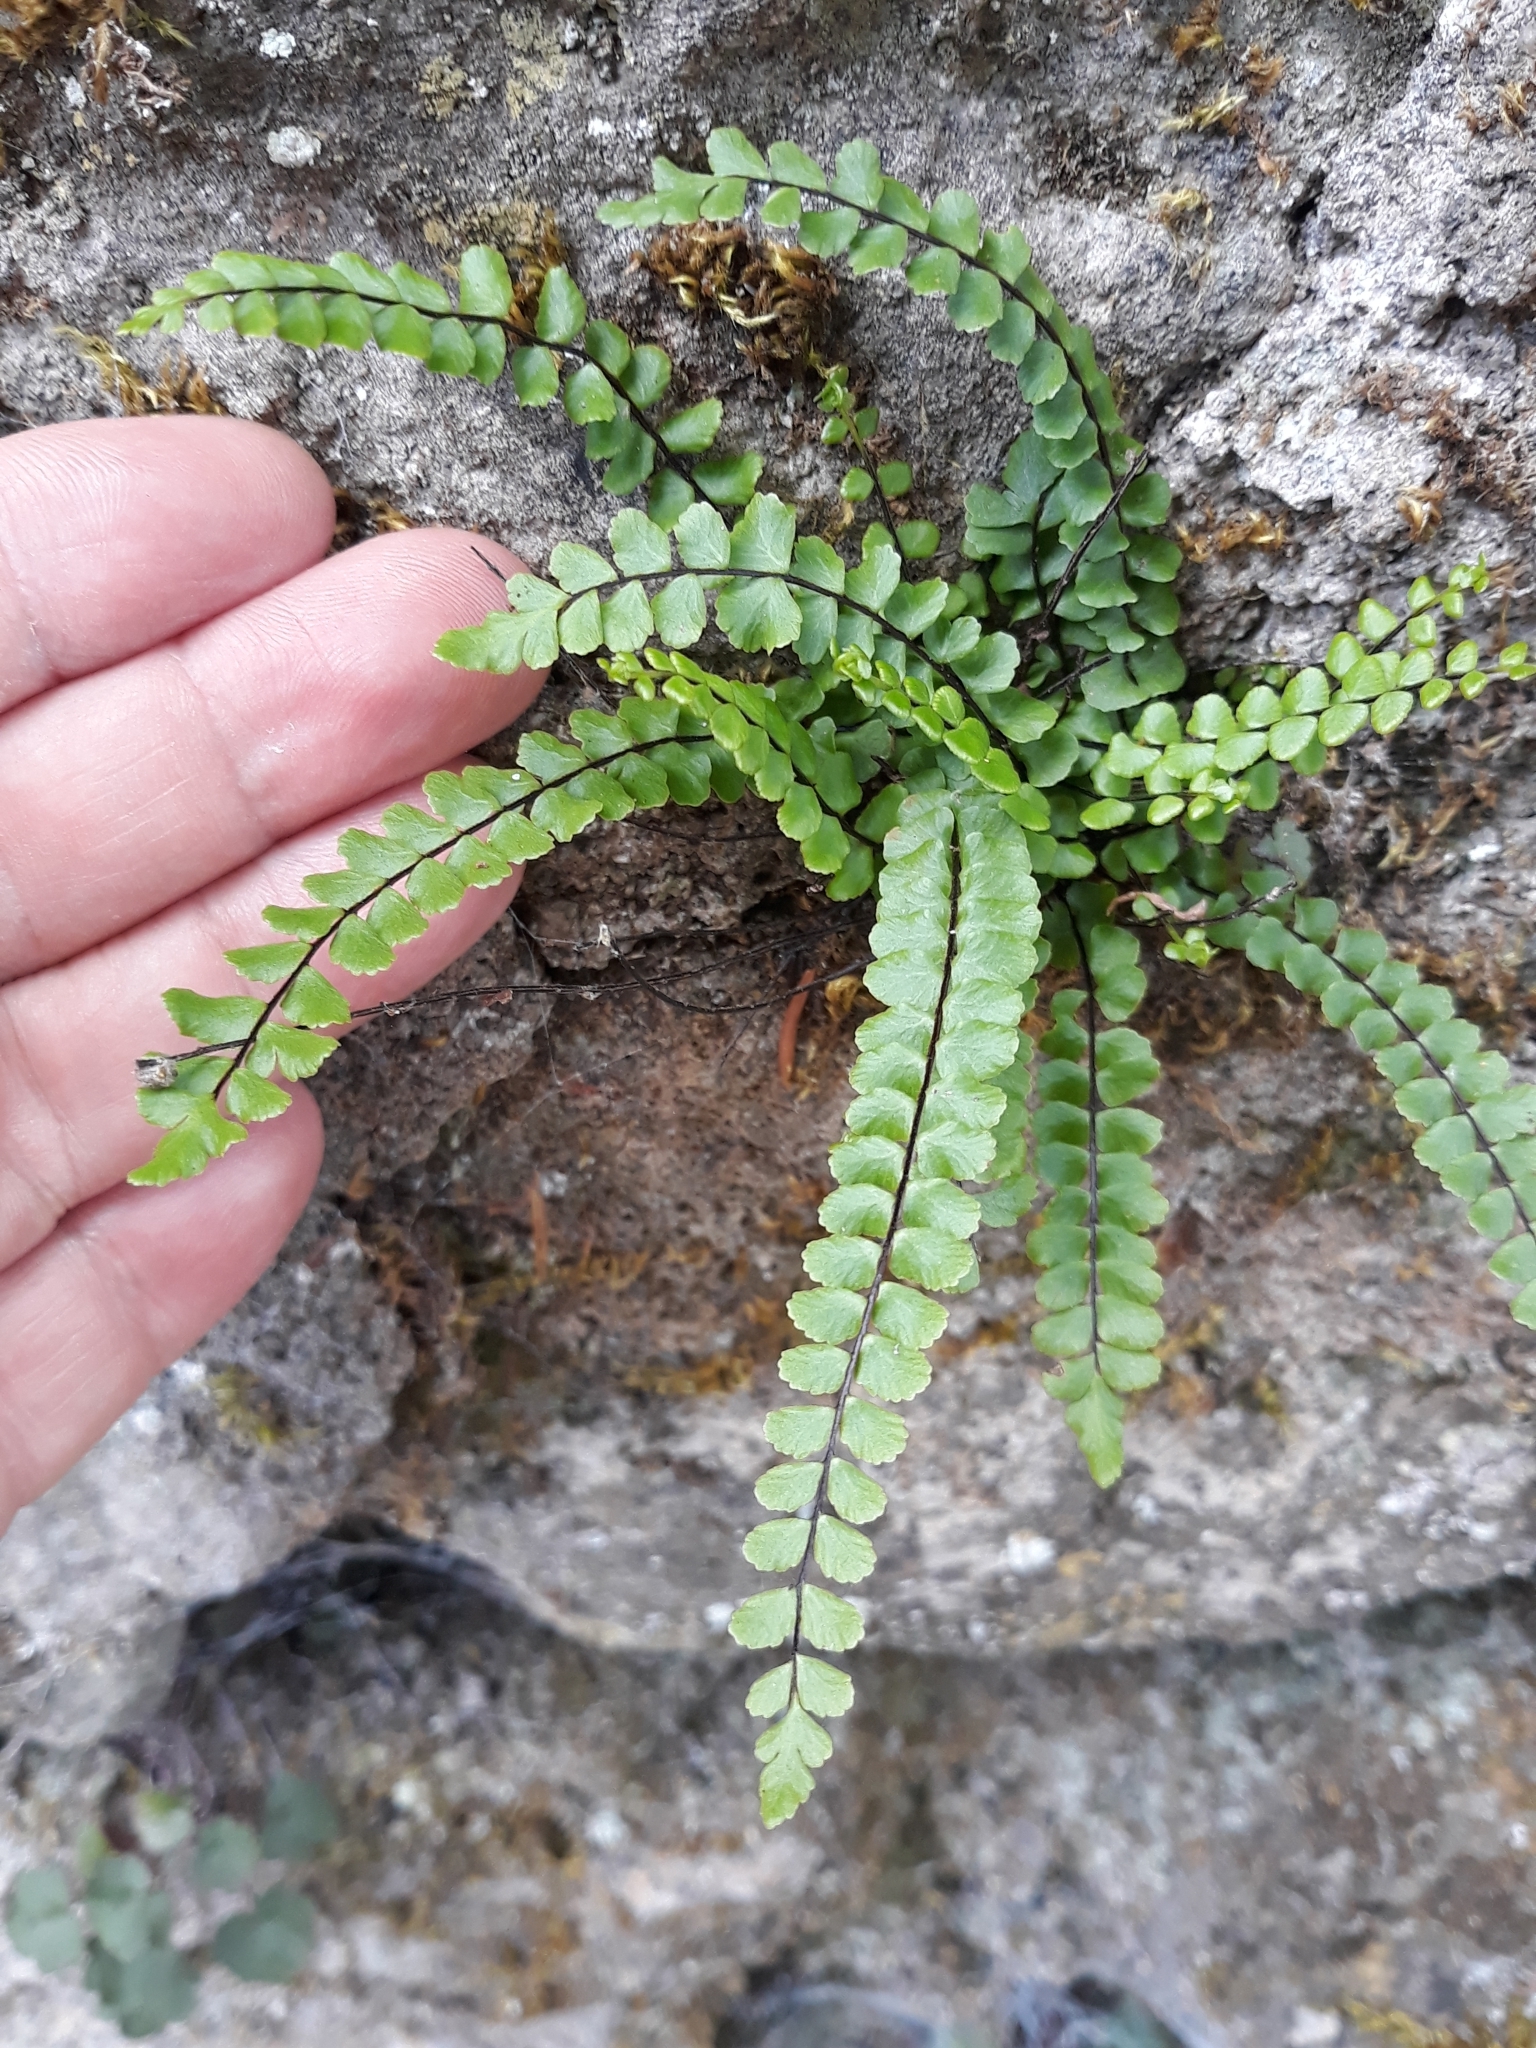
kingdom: Plantae
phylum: Tracheophyta
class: Polypodiopsida
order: Polypodiales
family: Aspleniaceae
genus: Asplenium
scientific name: Asplenium trichomanes
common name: Maidenhair spleenwort
